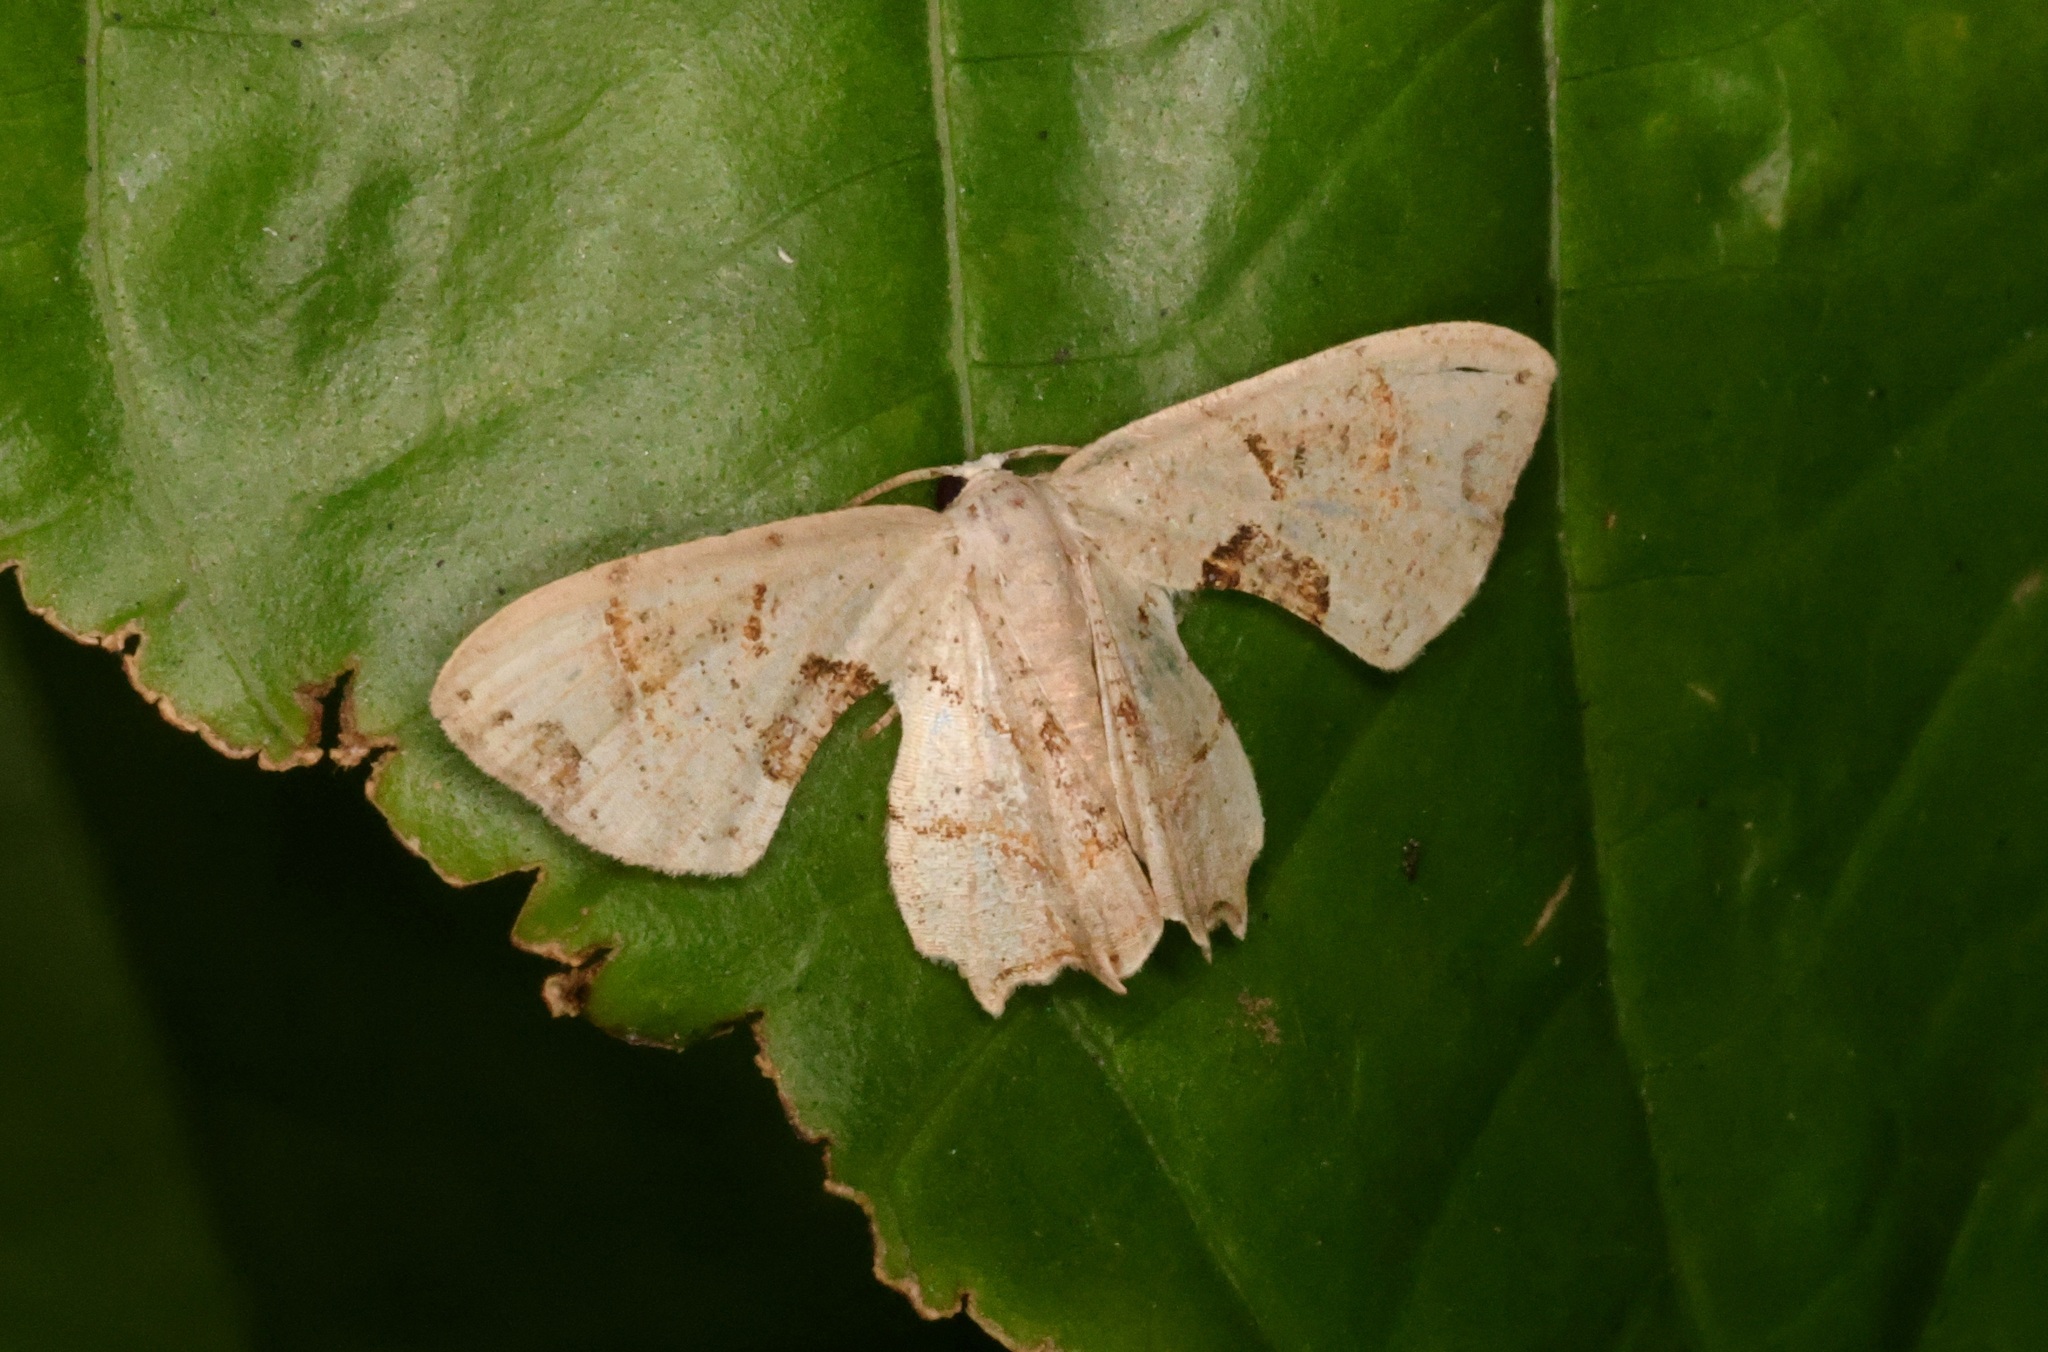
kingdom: Animalia
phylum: Arthropoda
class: Insecta
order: Lepidoptera
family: Uraniidae
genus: Oroplema
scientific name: Oroplema oyamana
